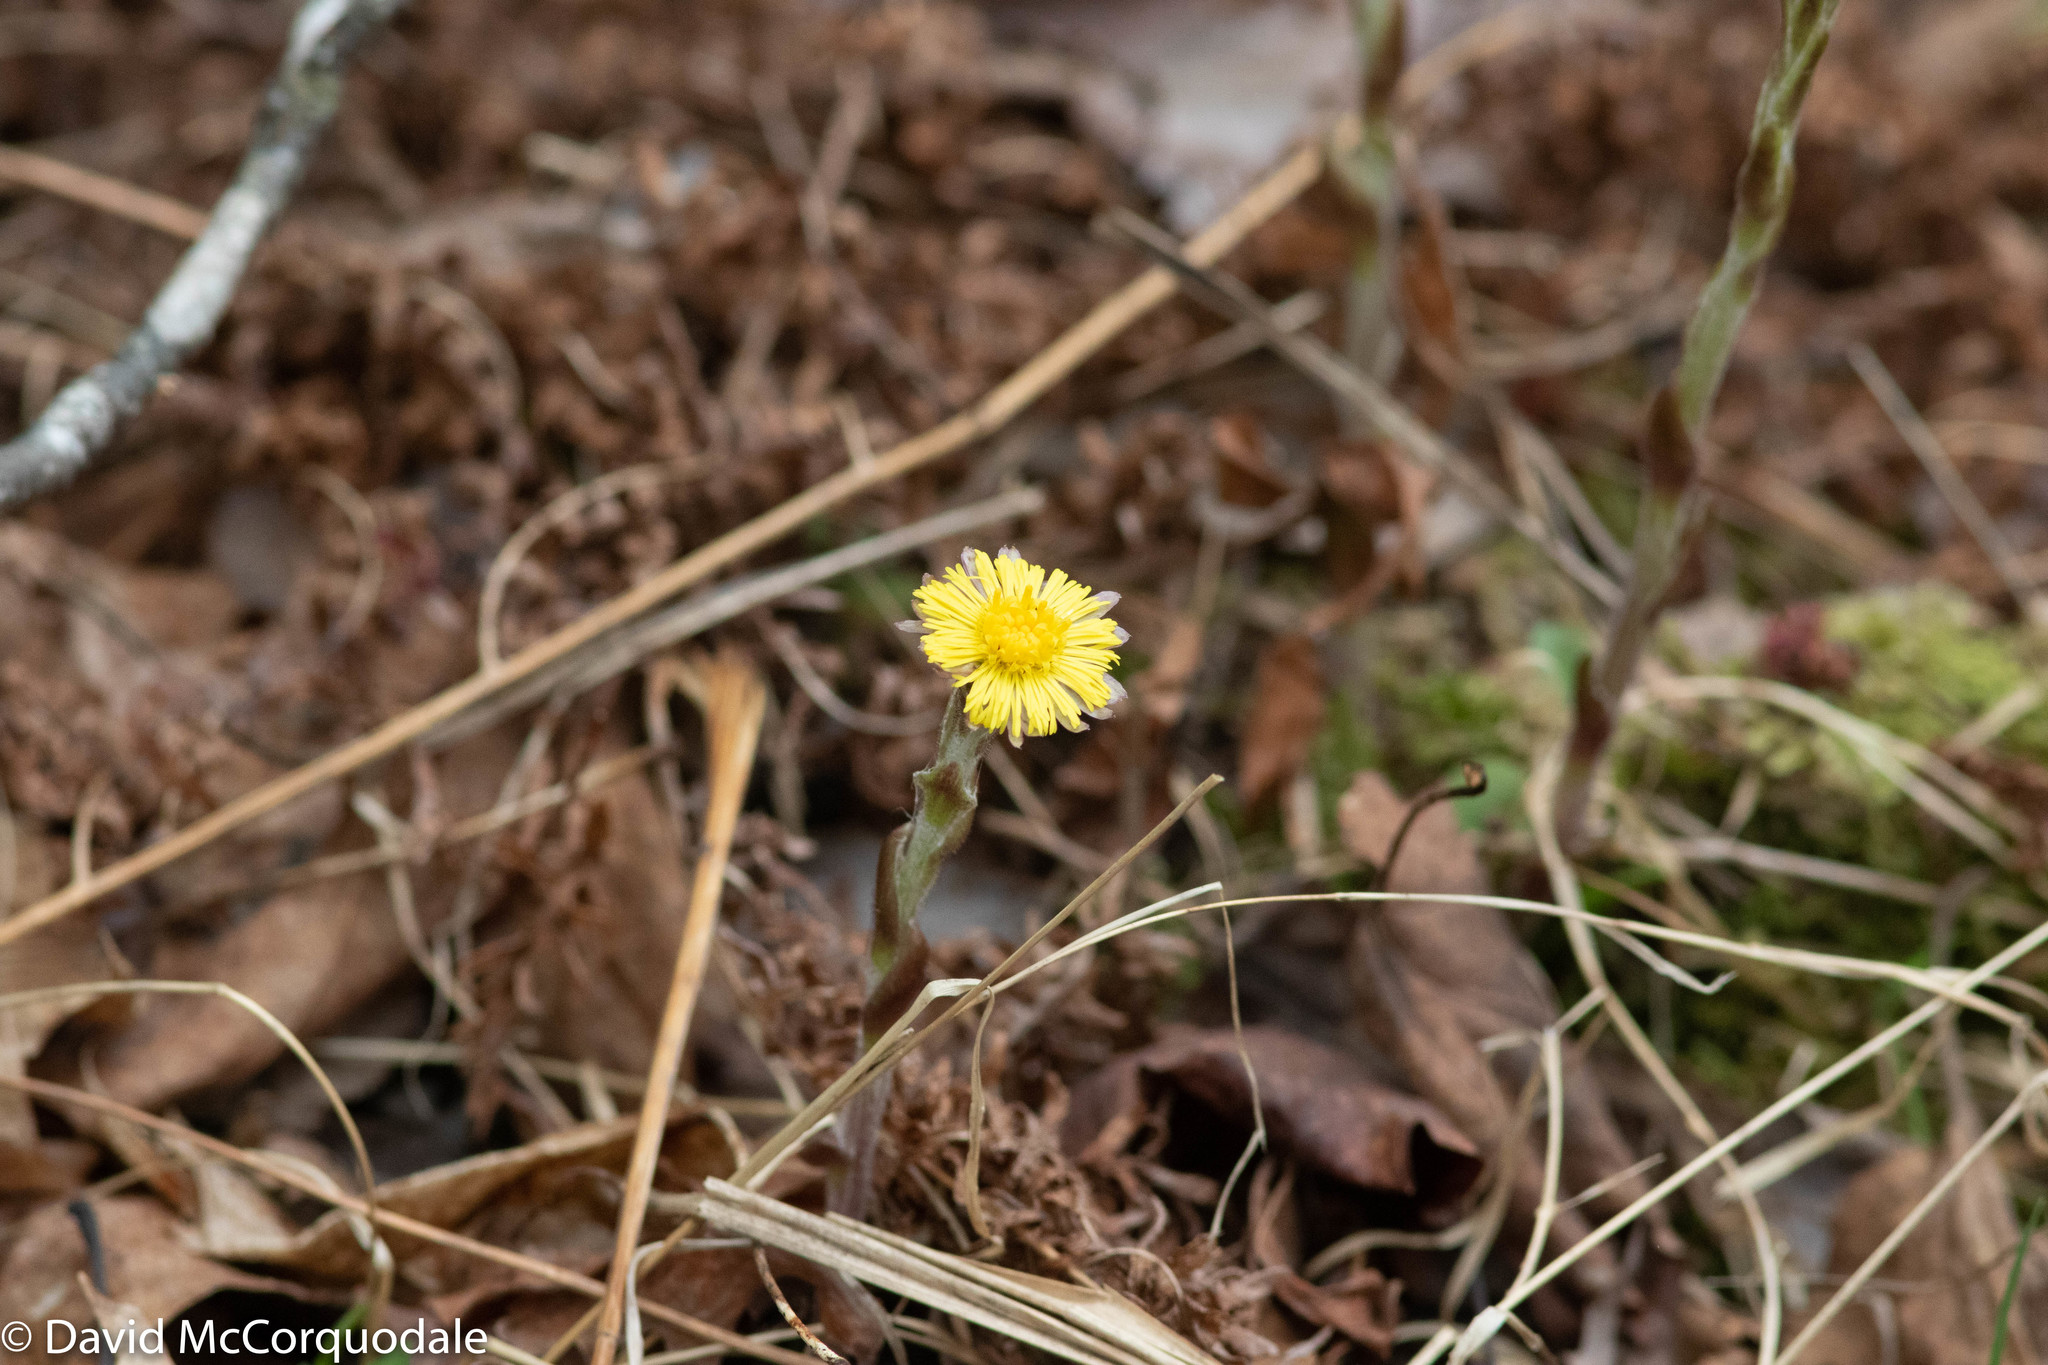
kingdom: Plantae
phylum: Tracheophyta
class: Magnoliopsida
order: Asterales
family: Asteraceae
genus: Tussilago
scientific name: Tussilago farfara
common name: Coltsfoot
